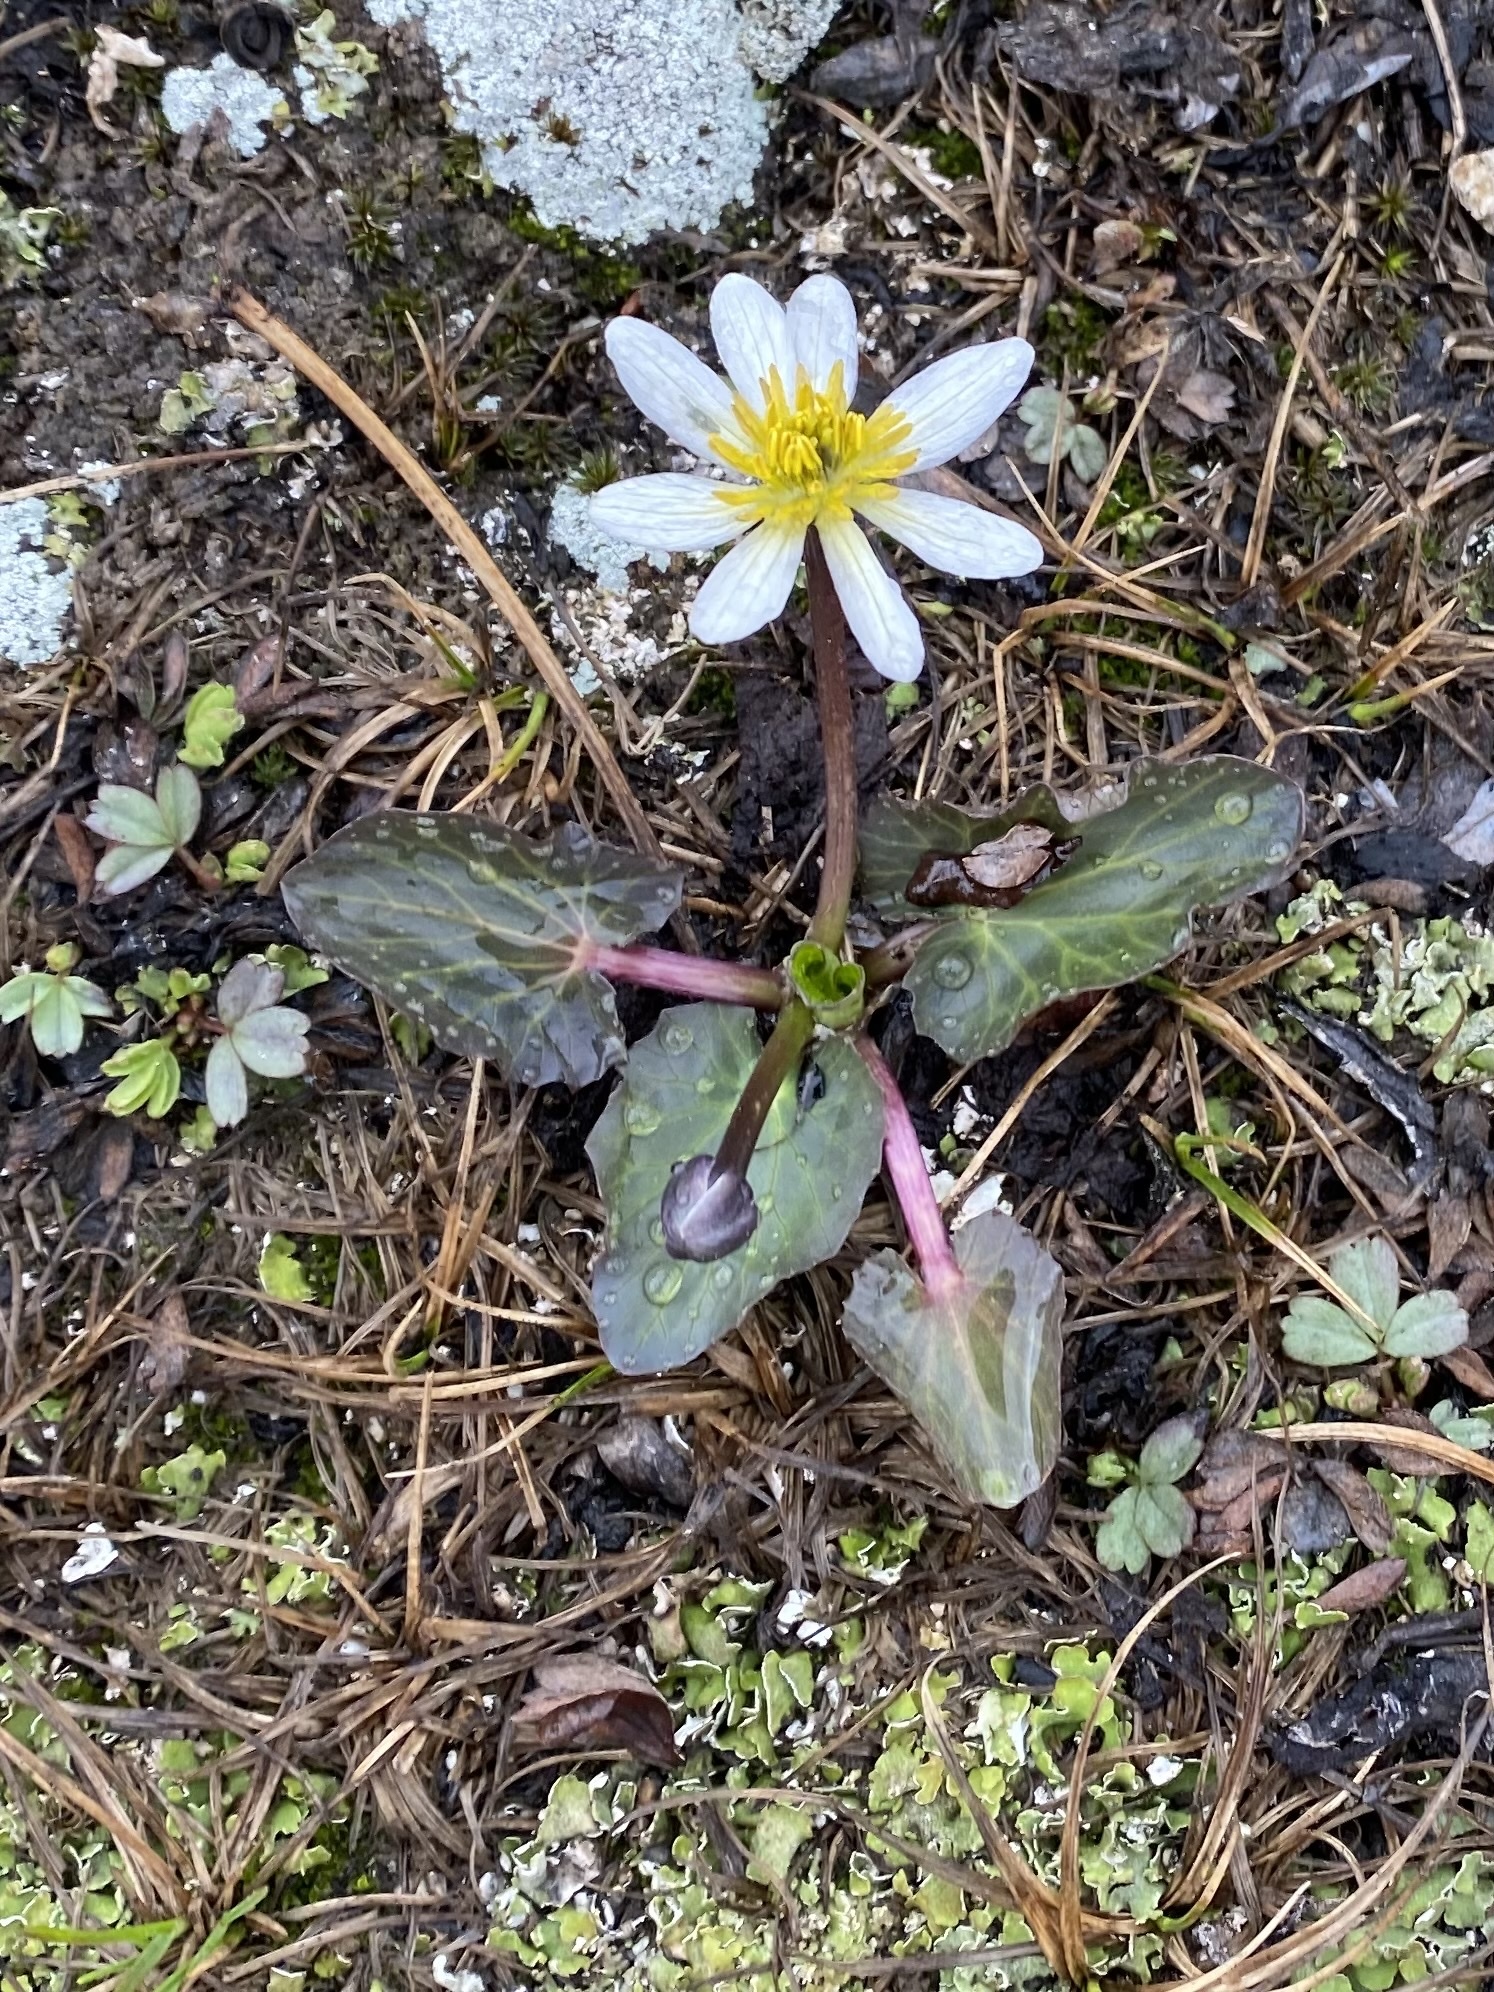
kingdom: Plantae
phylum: Tracheophyta
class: Magnoliopsida
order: Ranunculales
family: Ranunculaceae
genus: Caltha
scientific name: Caltha leptosepala
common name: Elkslip
